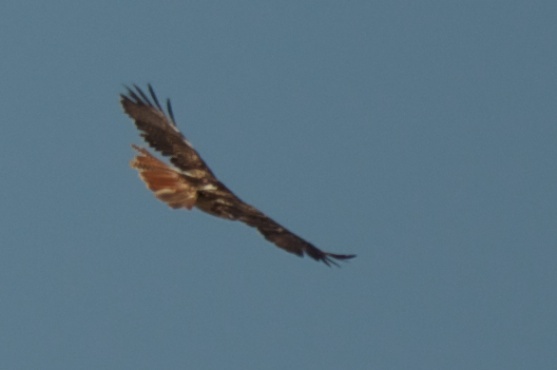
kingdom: Animalia
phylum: Chordata
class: Aves
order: Accipitriformes
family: Accipitridae
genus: Buteo
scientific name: Buteo jamaicensis
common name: Red-tailed hawk
